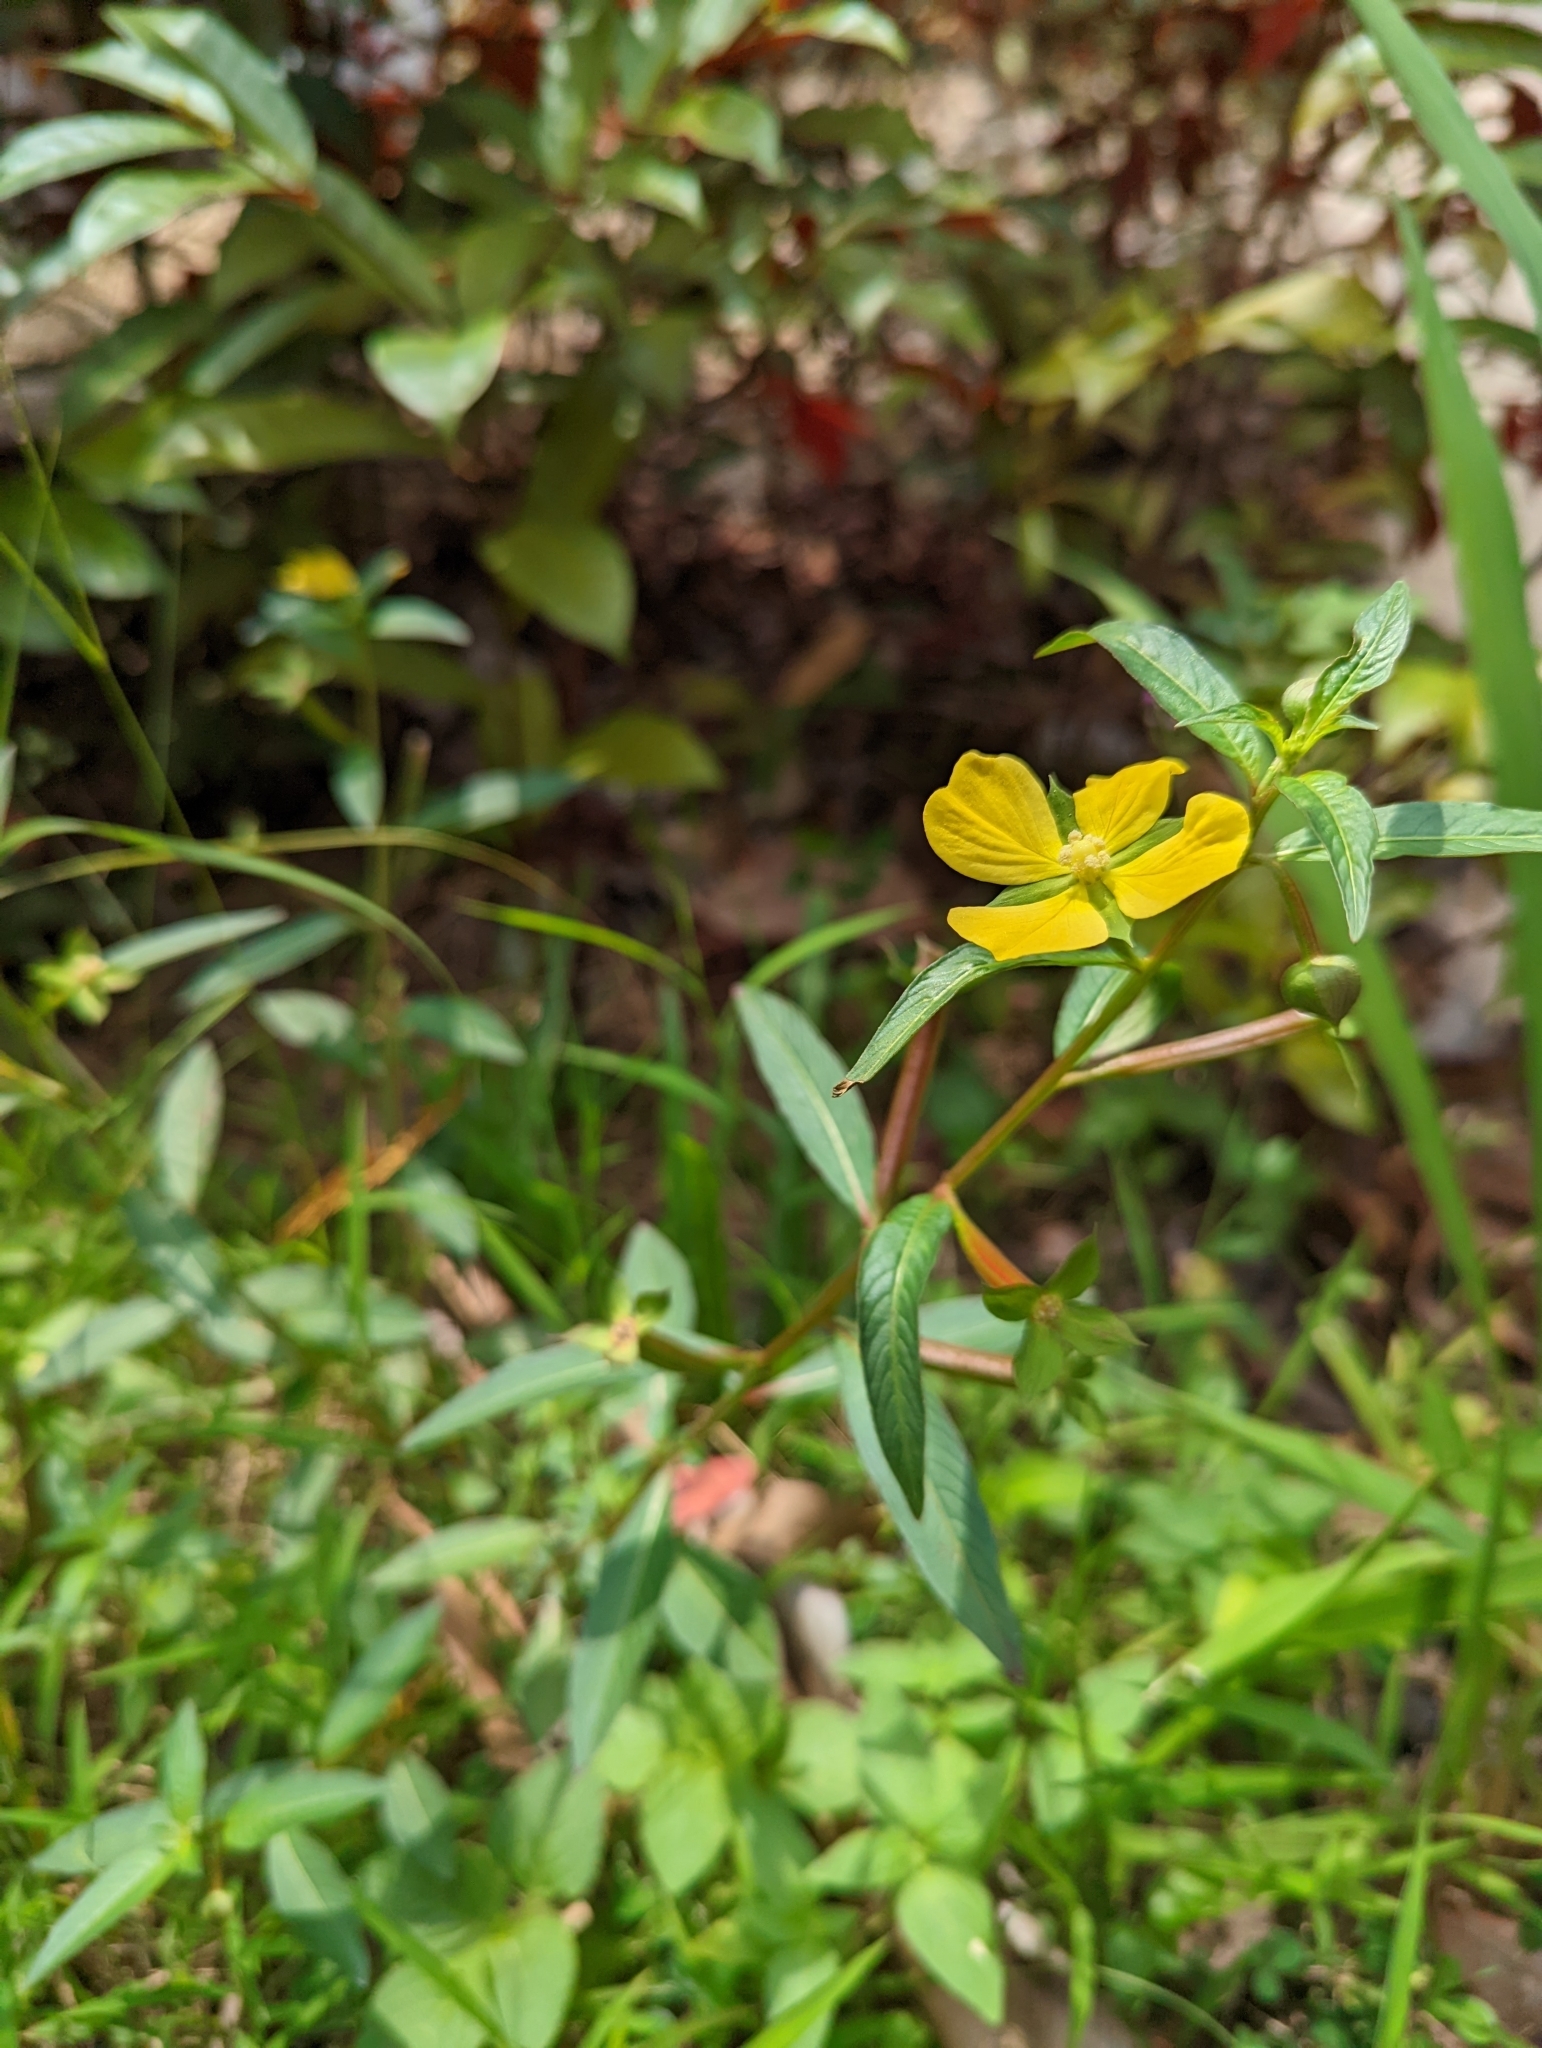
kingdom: Plantae
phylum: Tracheophyta
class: Magnoliopsida
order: Myrtales
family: Onagraceae
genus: Ludwigia
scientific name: Ludwigia octovalvis
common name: Water-primrose
